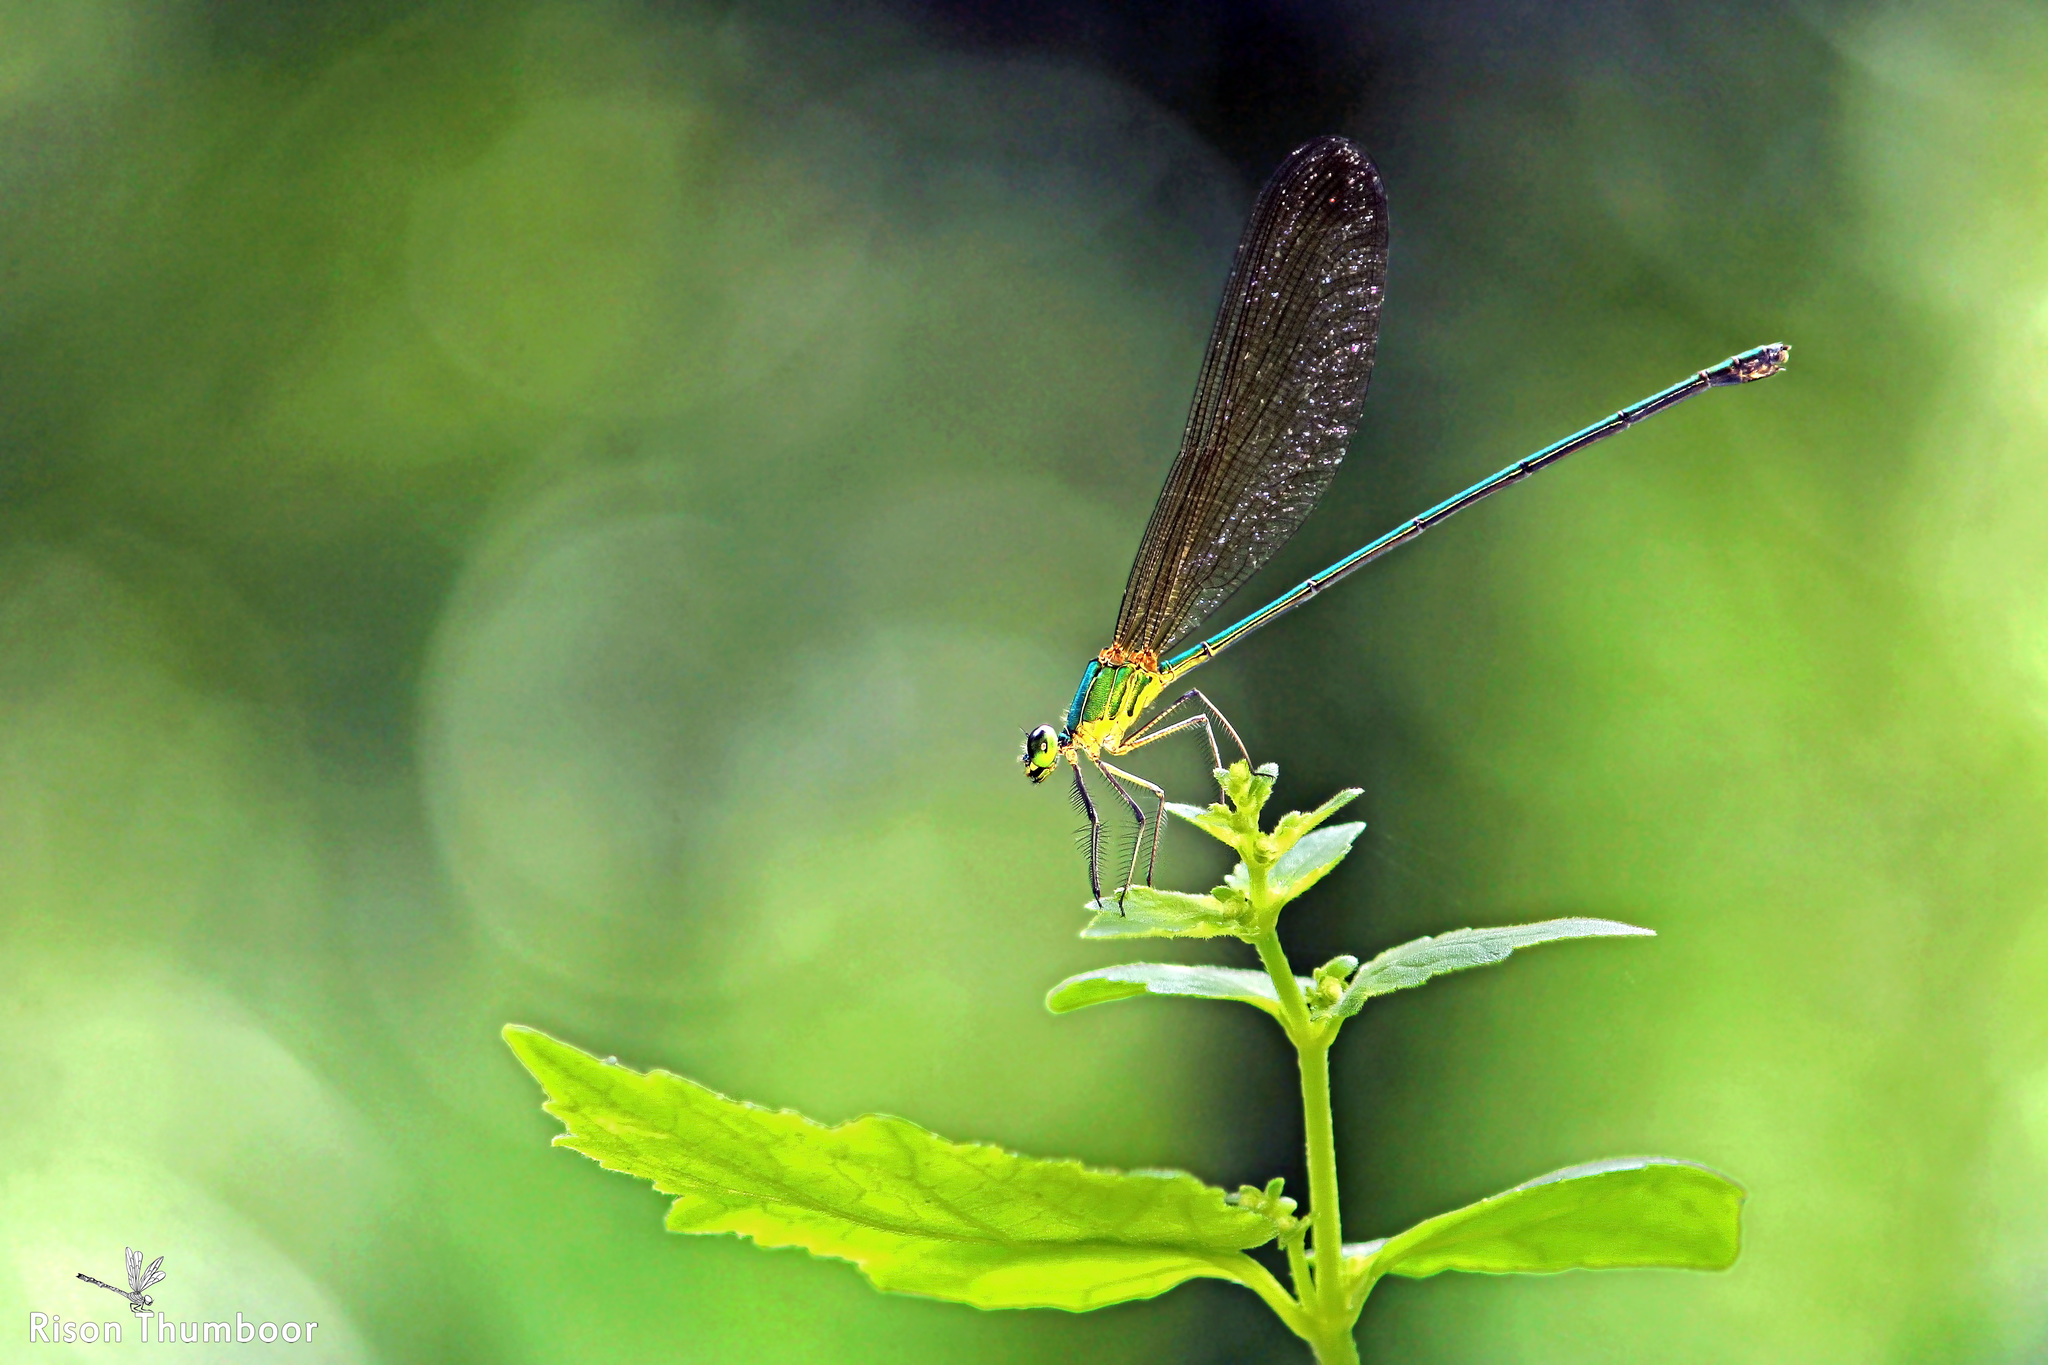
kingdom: Animalia
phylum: Arthropoda
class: Insecta
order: Odonata
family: Calopterygidae
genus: Vestalis
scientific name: Vestalis gracilis
